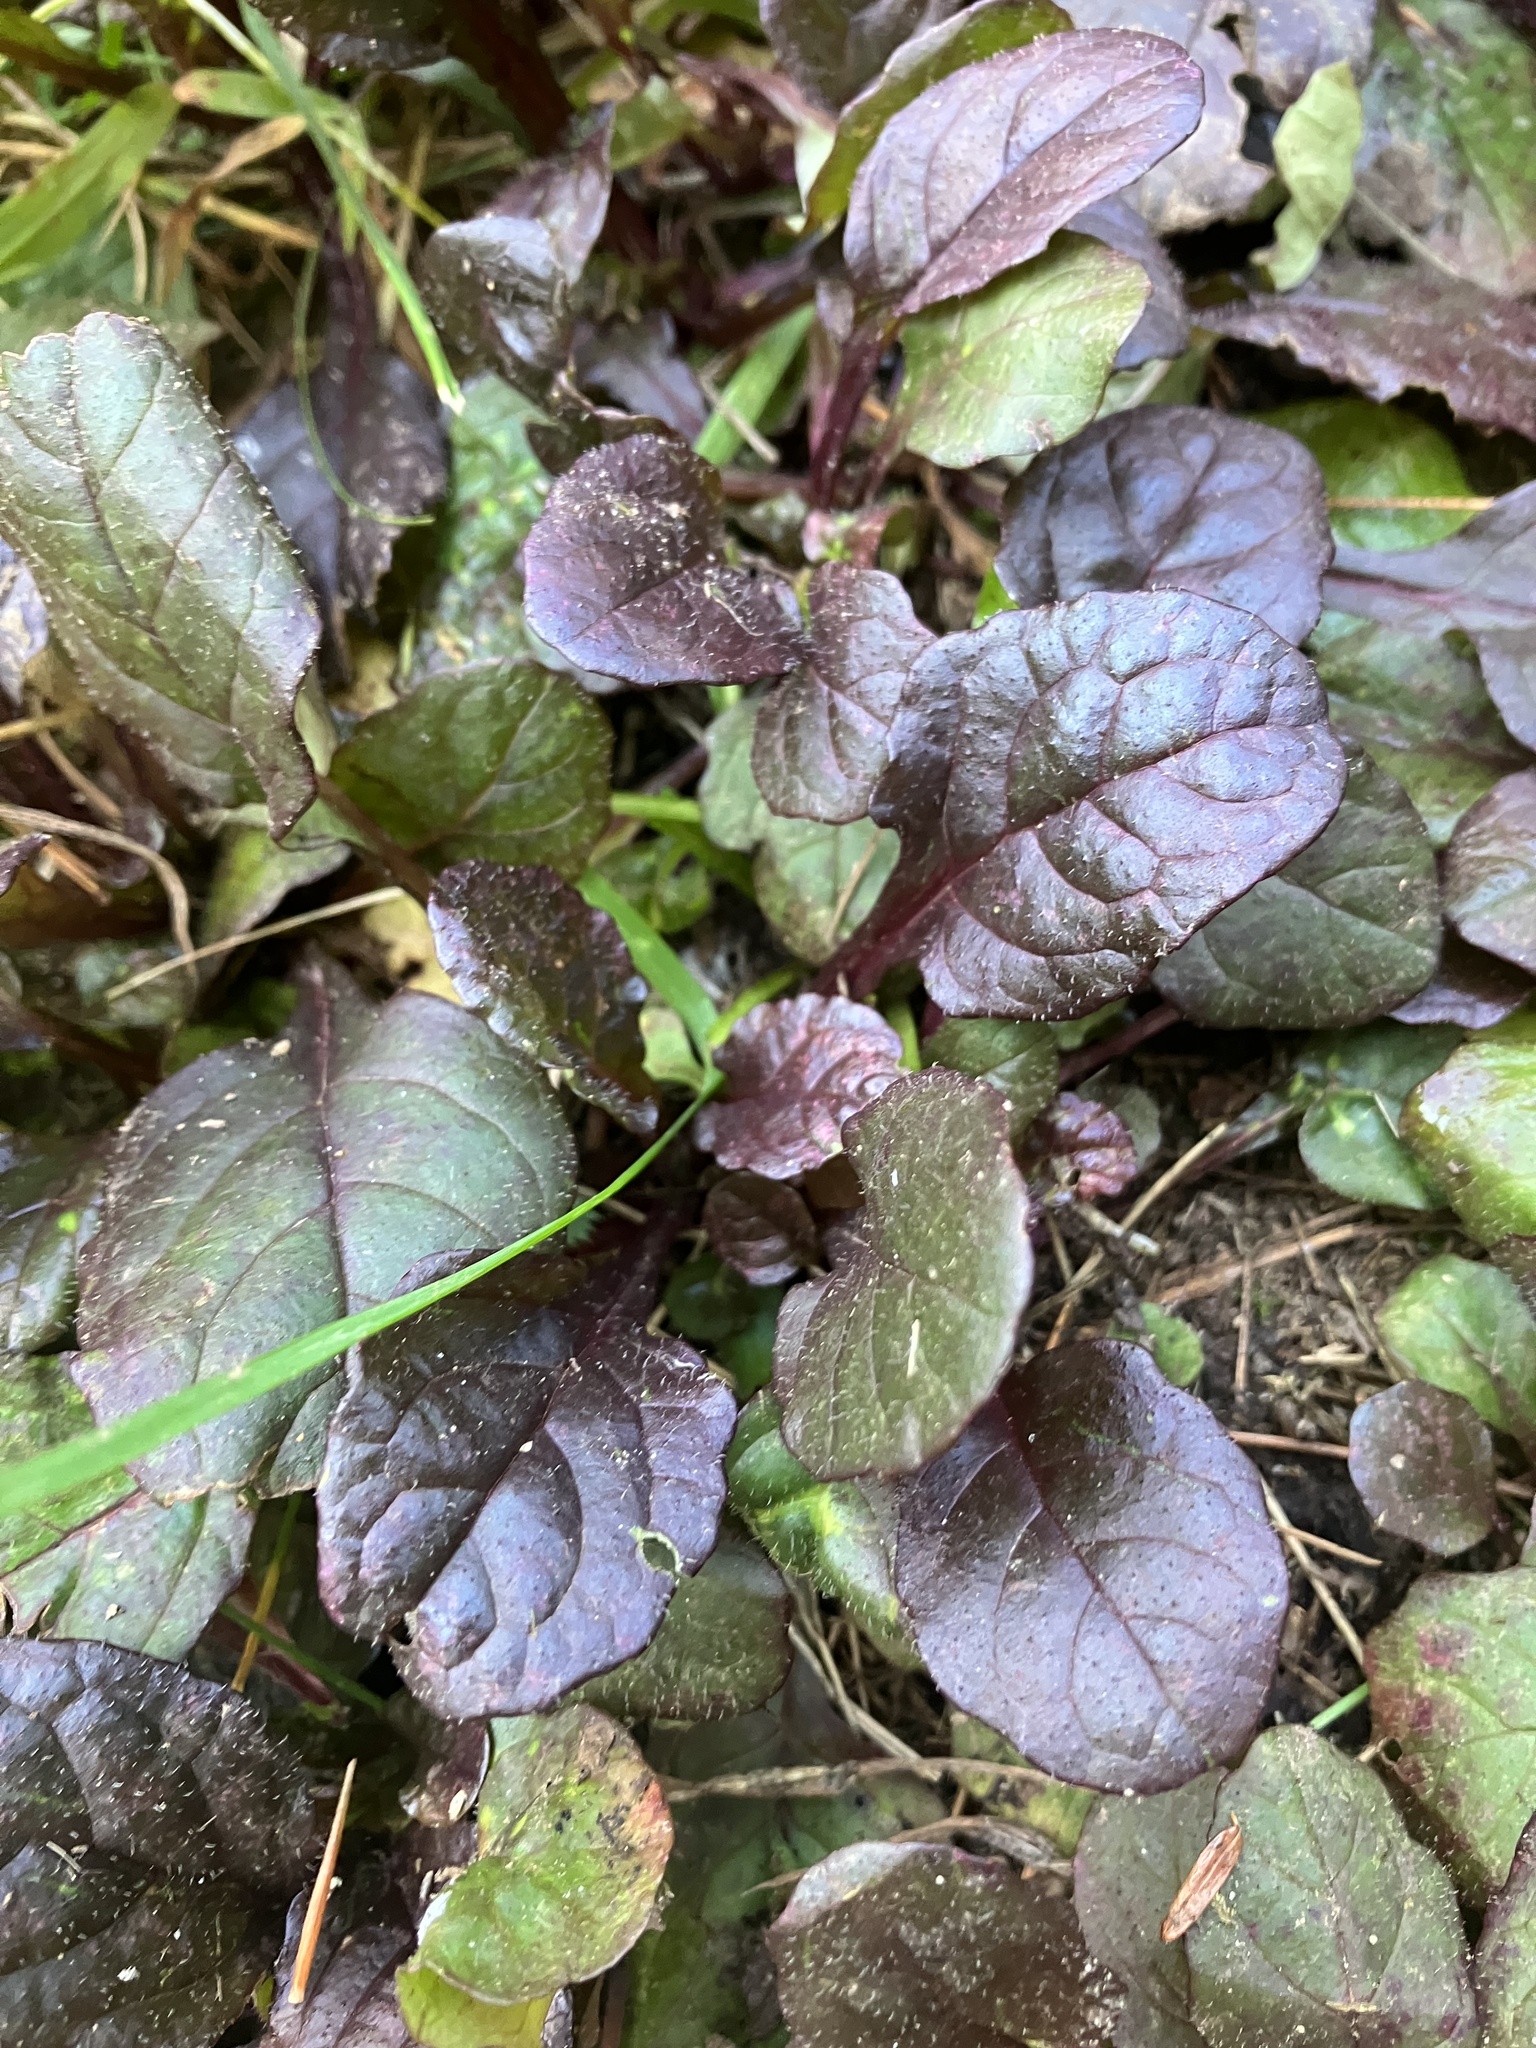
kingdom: Plantae
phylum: Tracheophyta
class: Magnoliopsida
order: Lamiales
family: Lamiaceae
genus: Ajuga
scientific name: Ajuga reptans
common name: Bugle
